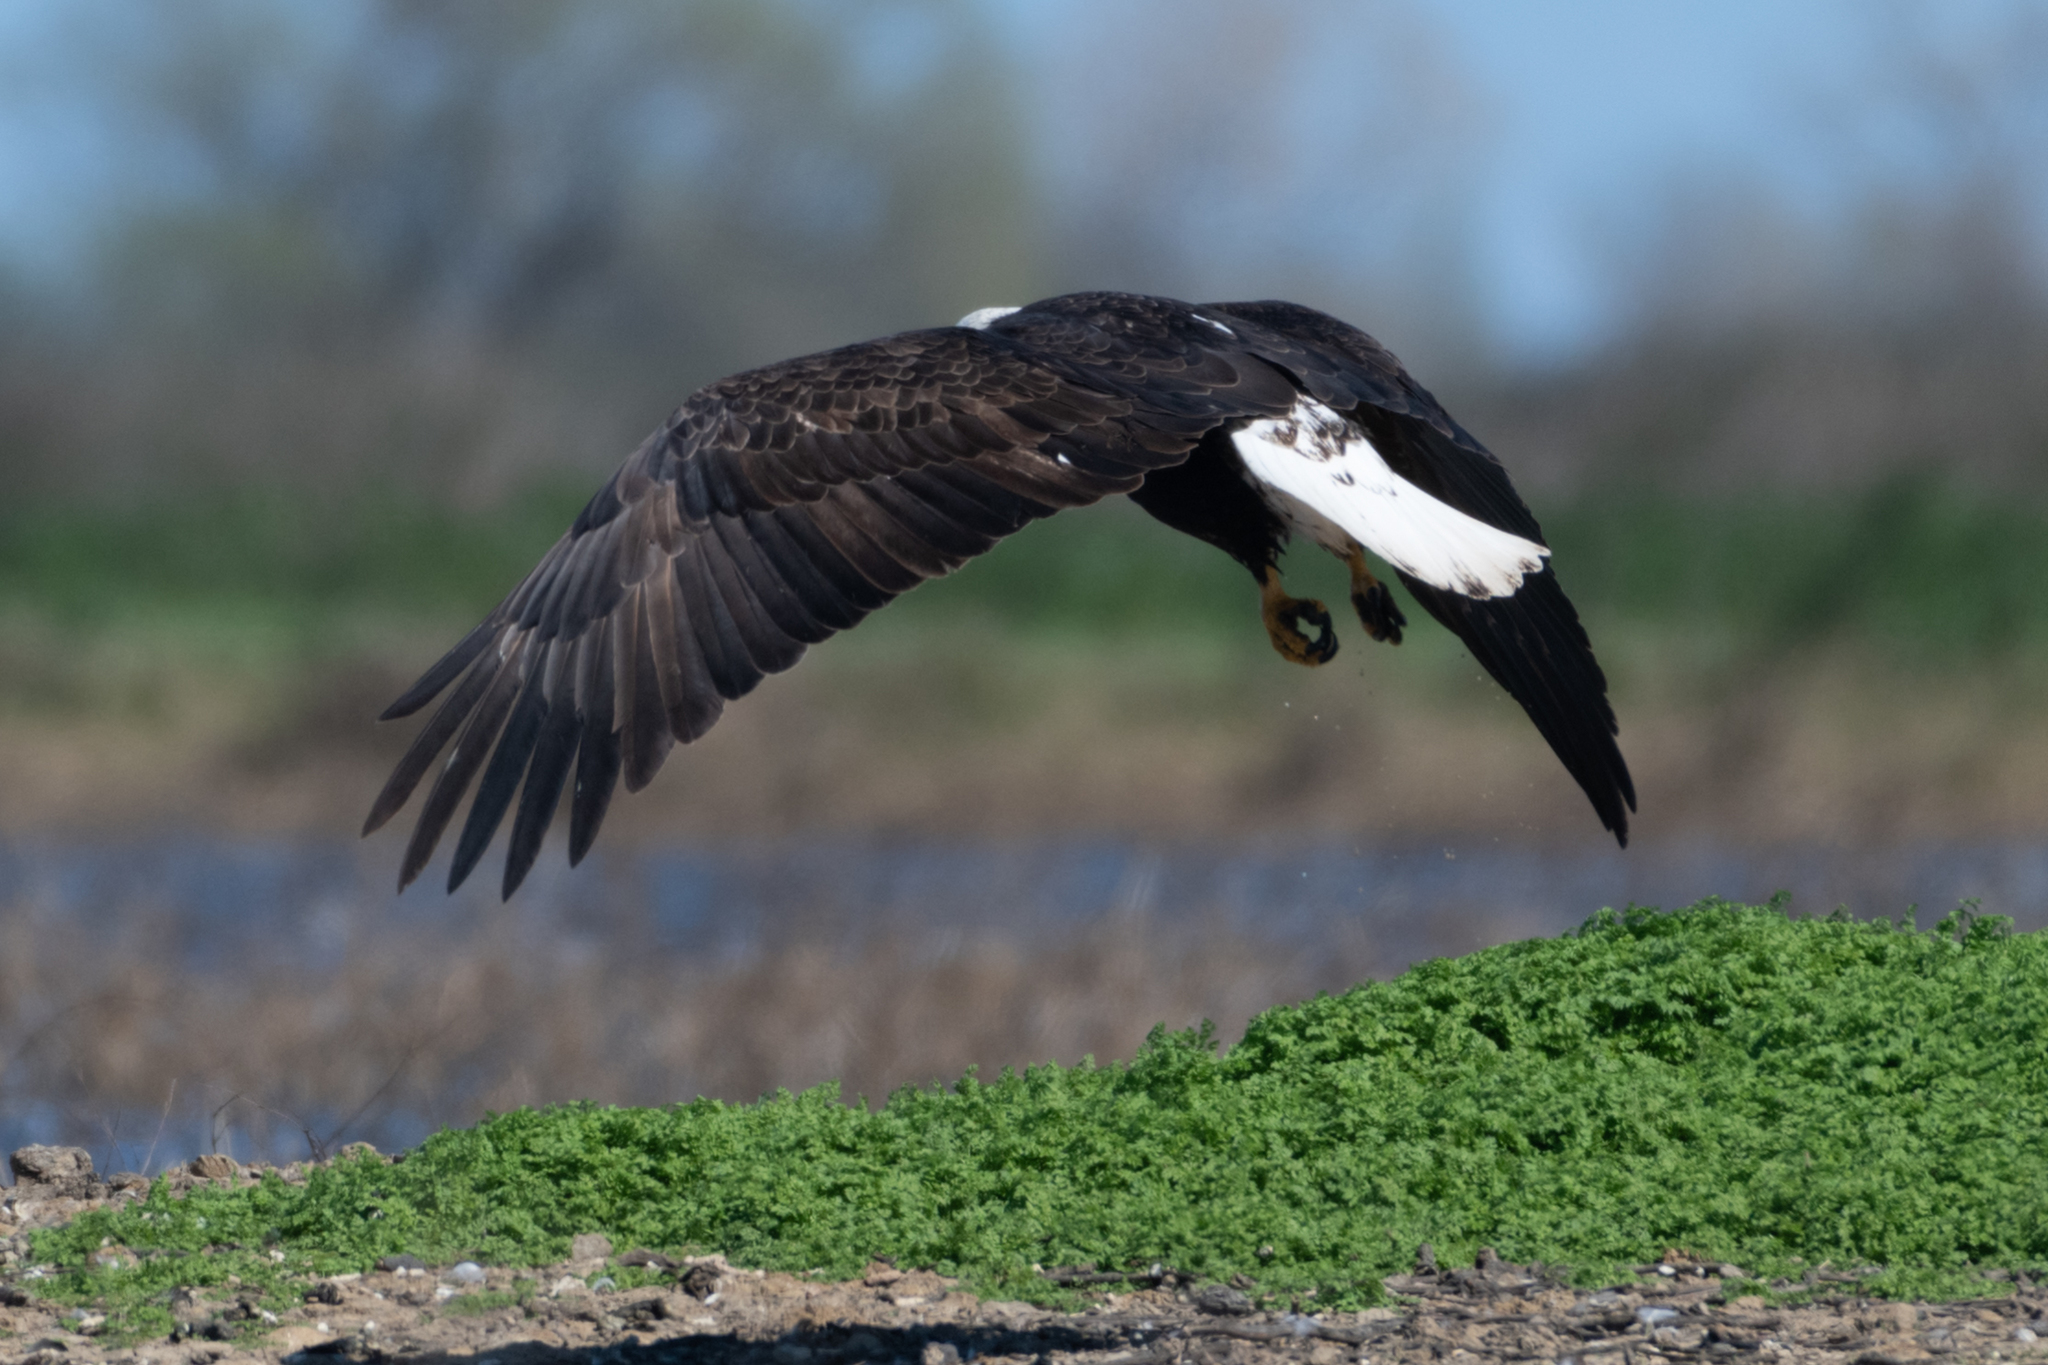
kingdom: Animalia
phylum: Chordata
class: Aves
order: Accipitriformes
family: Accipitridae
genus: Haliaeetus
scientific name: Haliaeetus leucocephalus
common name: Bald eagle
